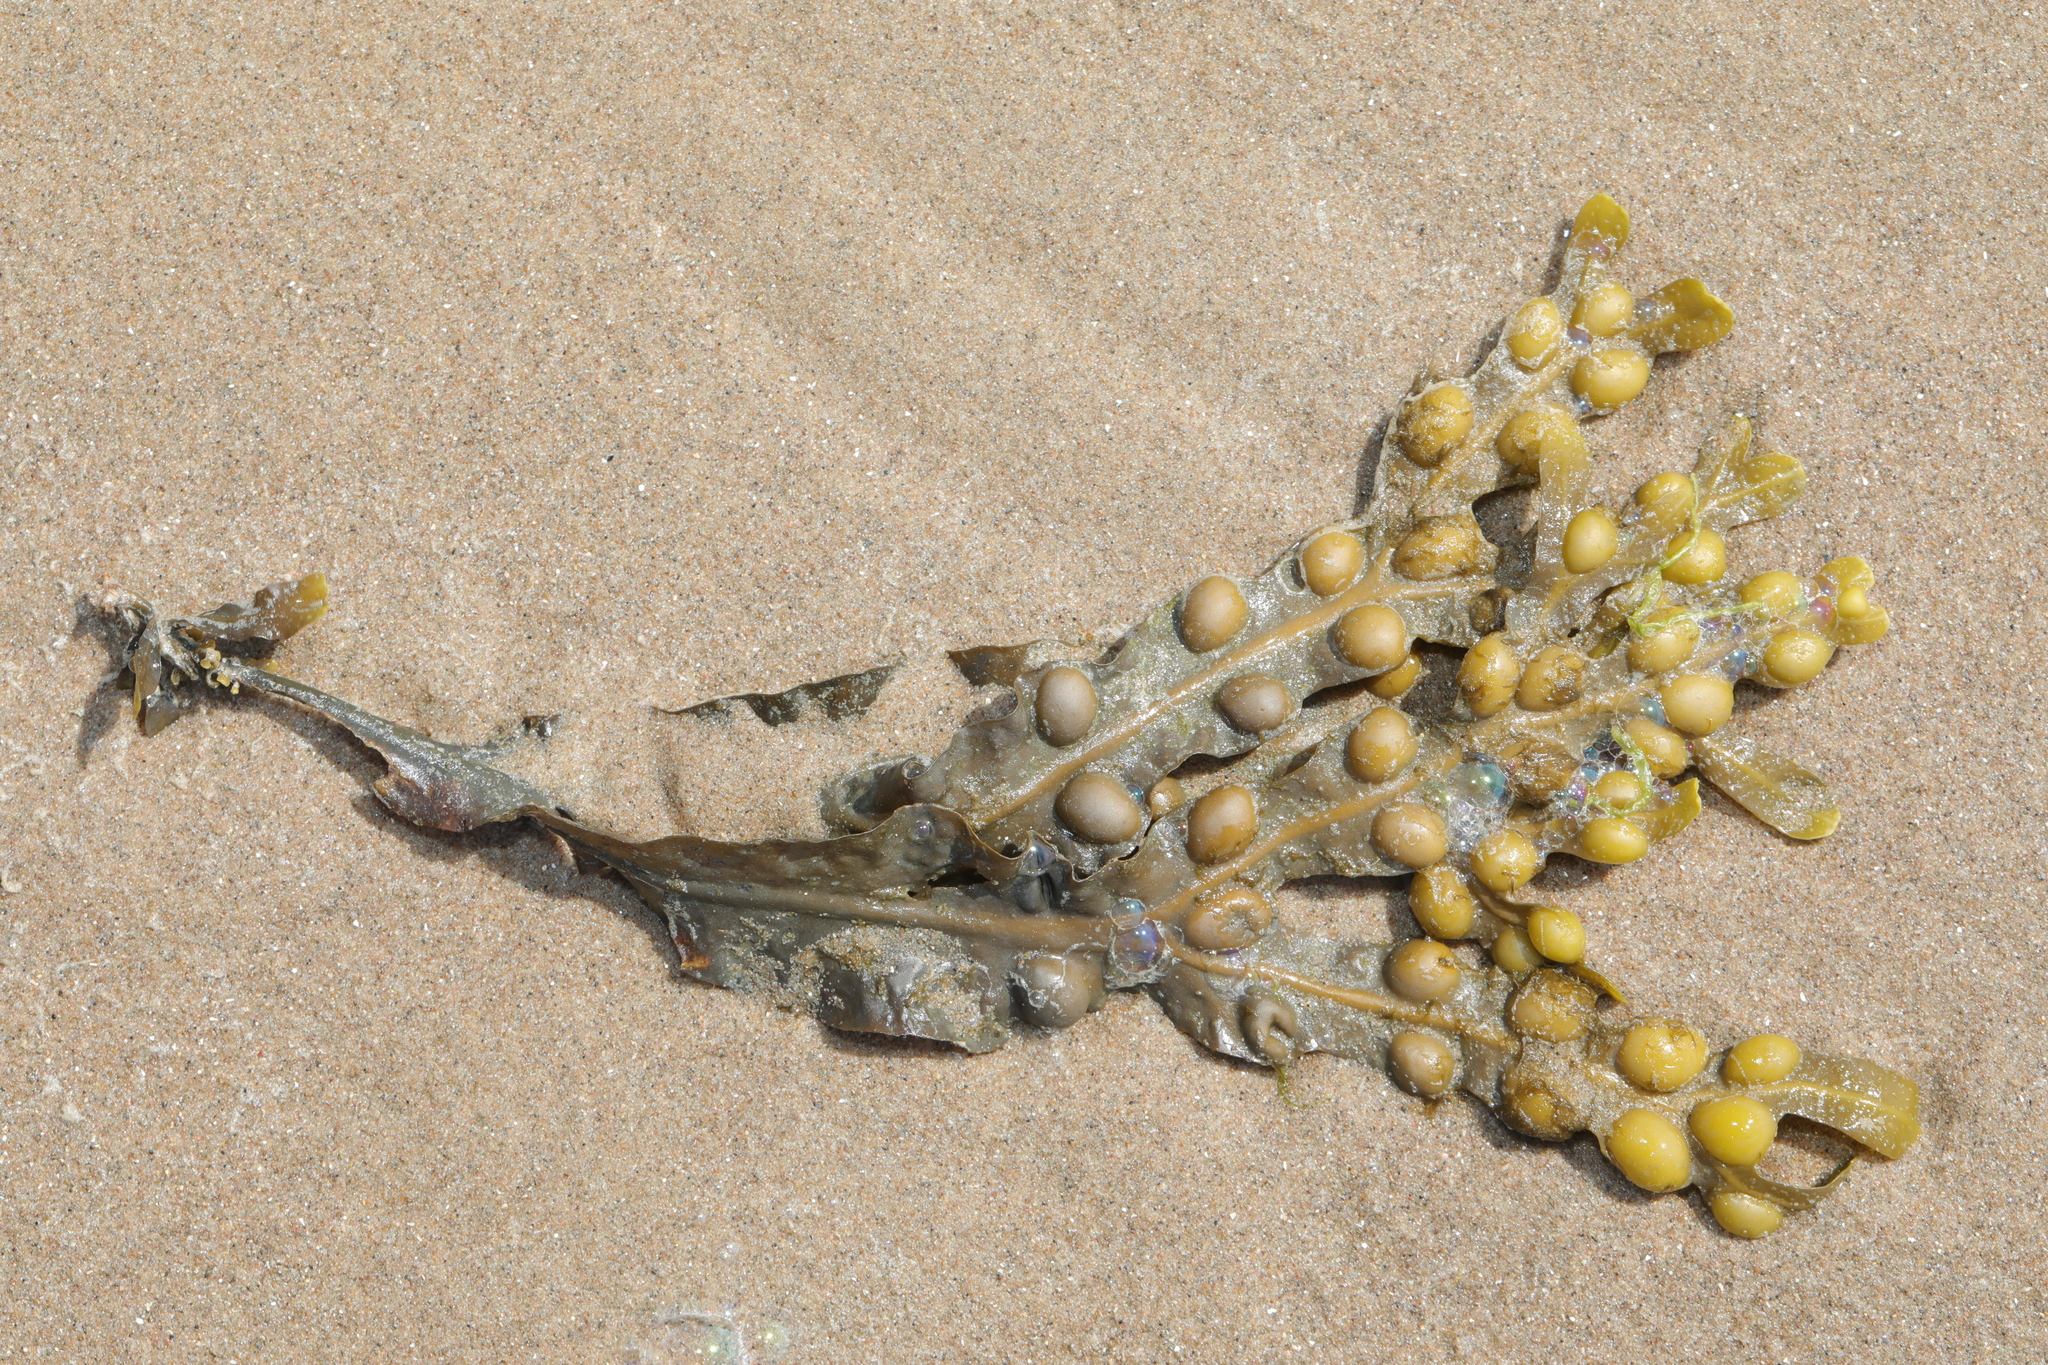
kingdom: Chromista
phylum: Ochrophyta
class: Phaeophyceae
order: Fucales
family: Fucaceae
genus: Fucus
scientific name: Fucus vesiculosus
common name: Bladder wrack
